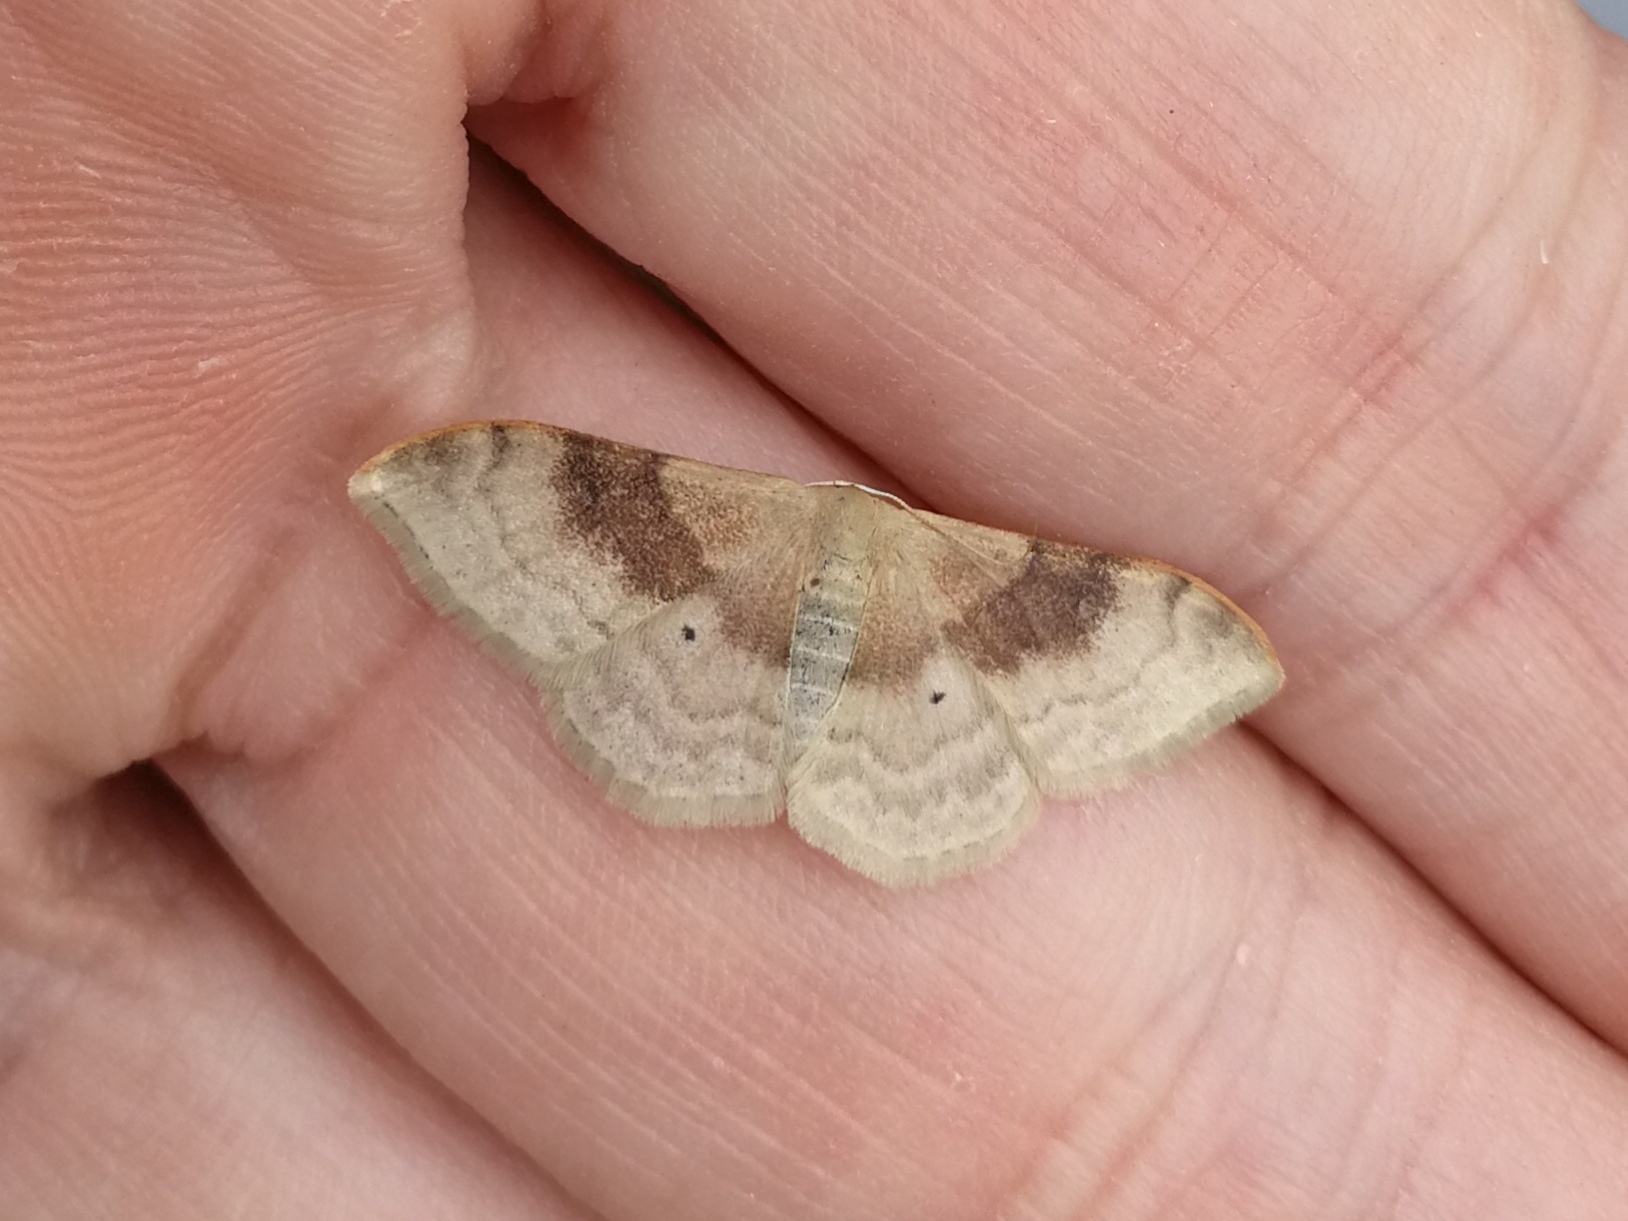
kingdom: Animalia
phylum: Arthropoda
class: Insecta
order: Lepidoptera
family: Geometridae
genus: Idaea
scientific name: Idaea degeneraria
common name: Portland ribbon wave
